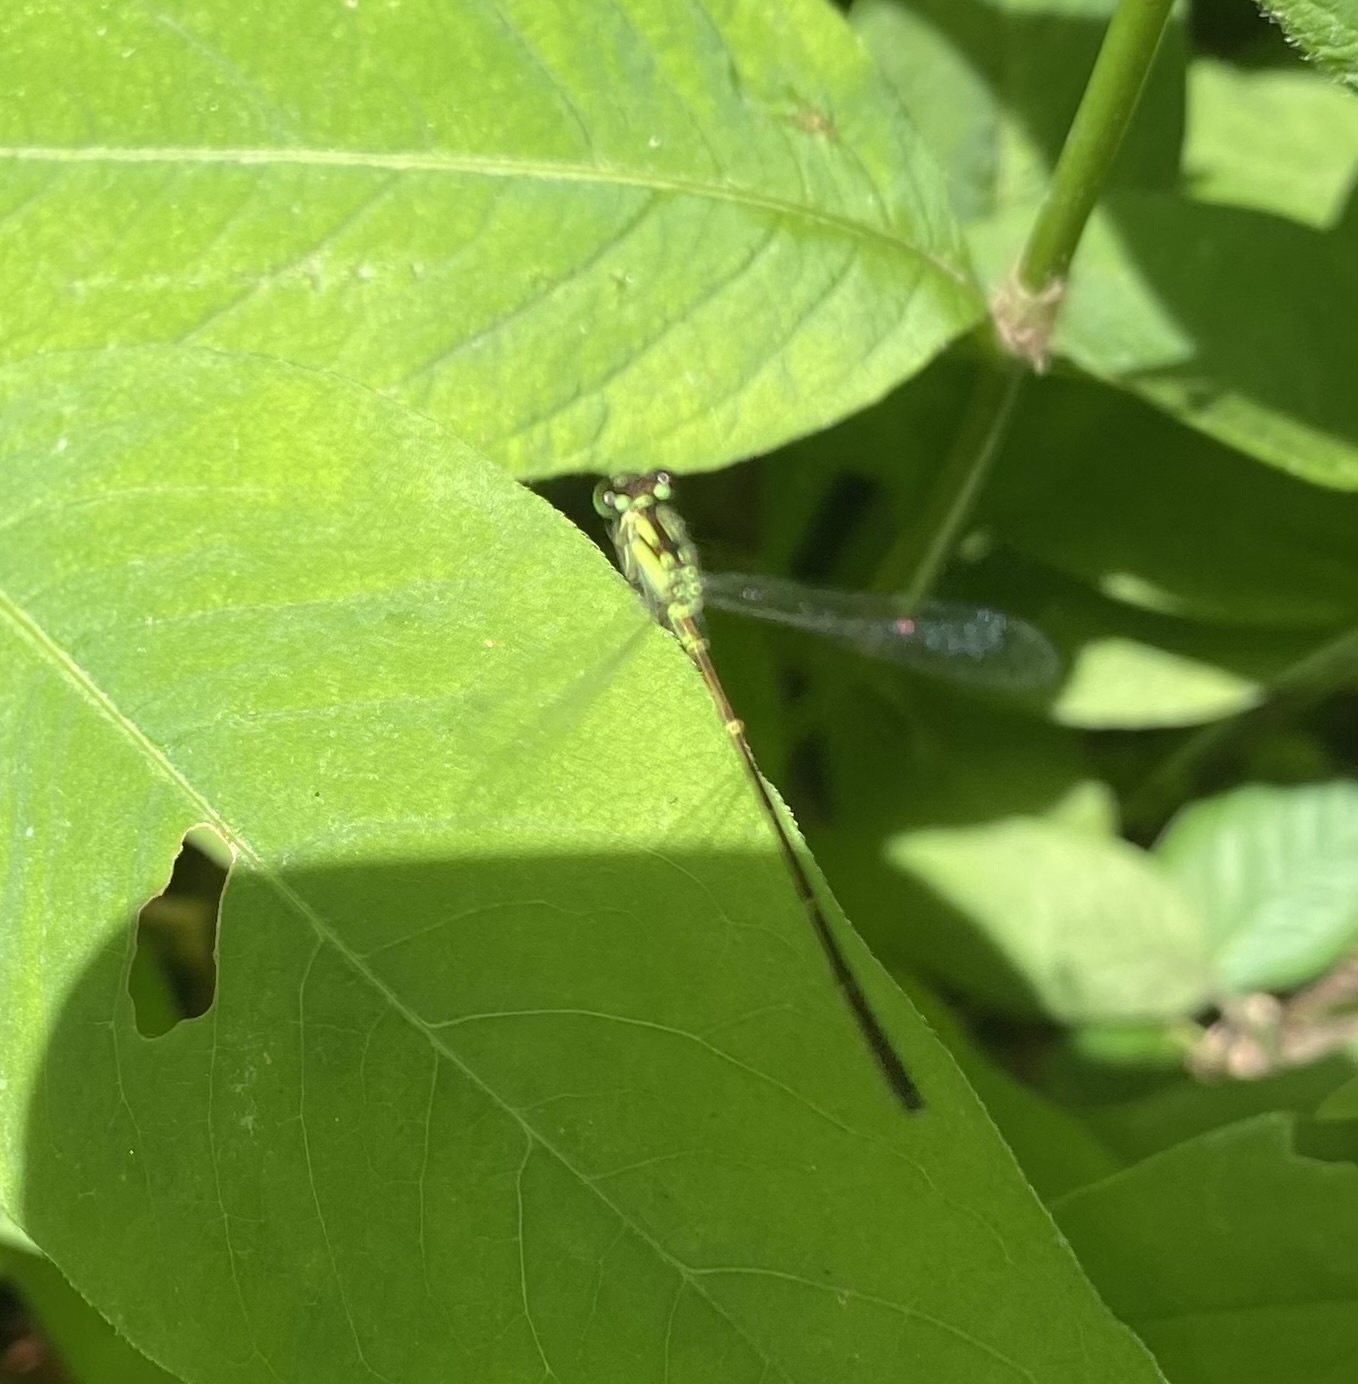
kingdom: Animalia
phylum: Arthropoda
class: Insecta
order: Odonata
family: Coenagrionidae
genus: Ischnura
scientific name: Ischnura posita
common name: Fragile forktail
